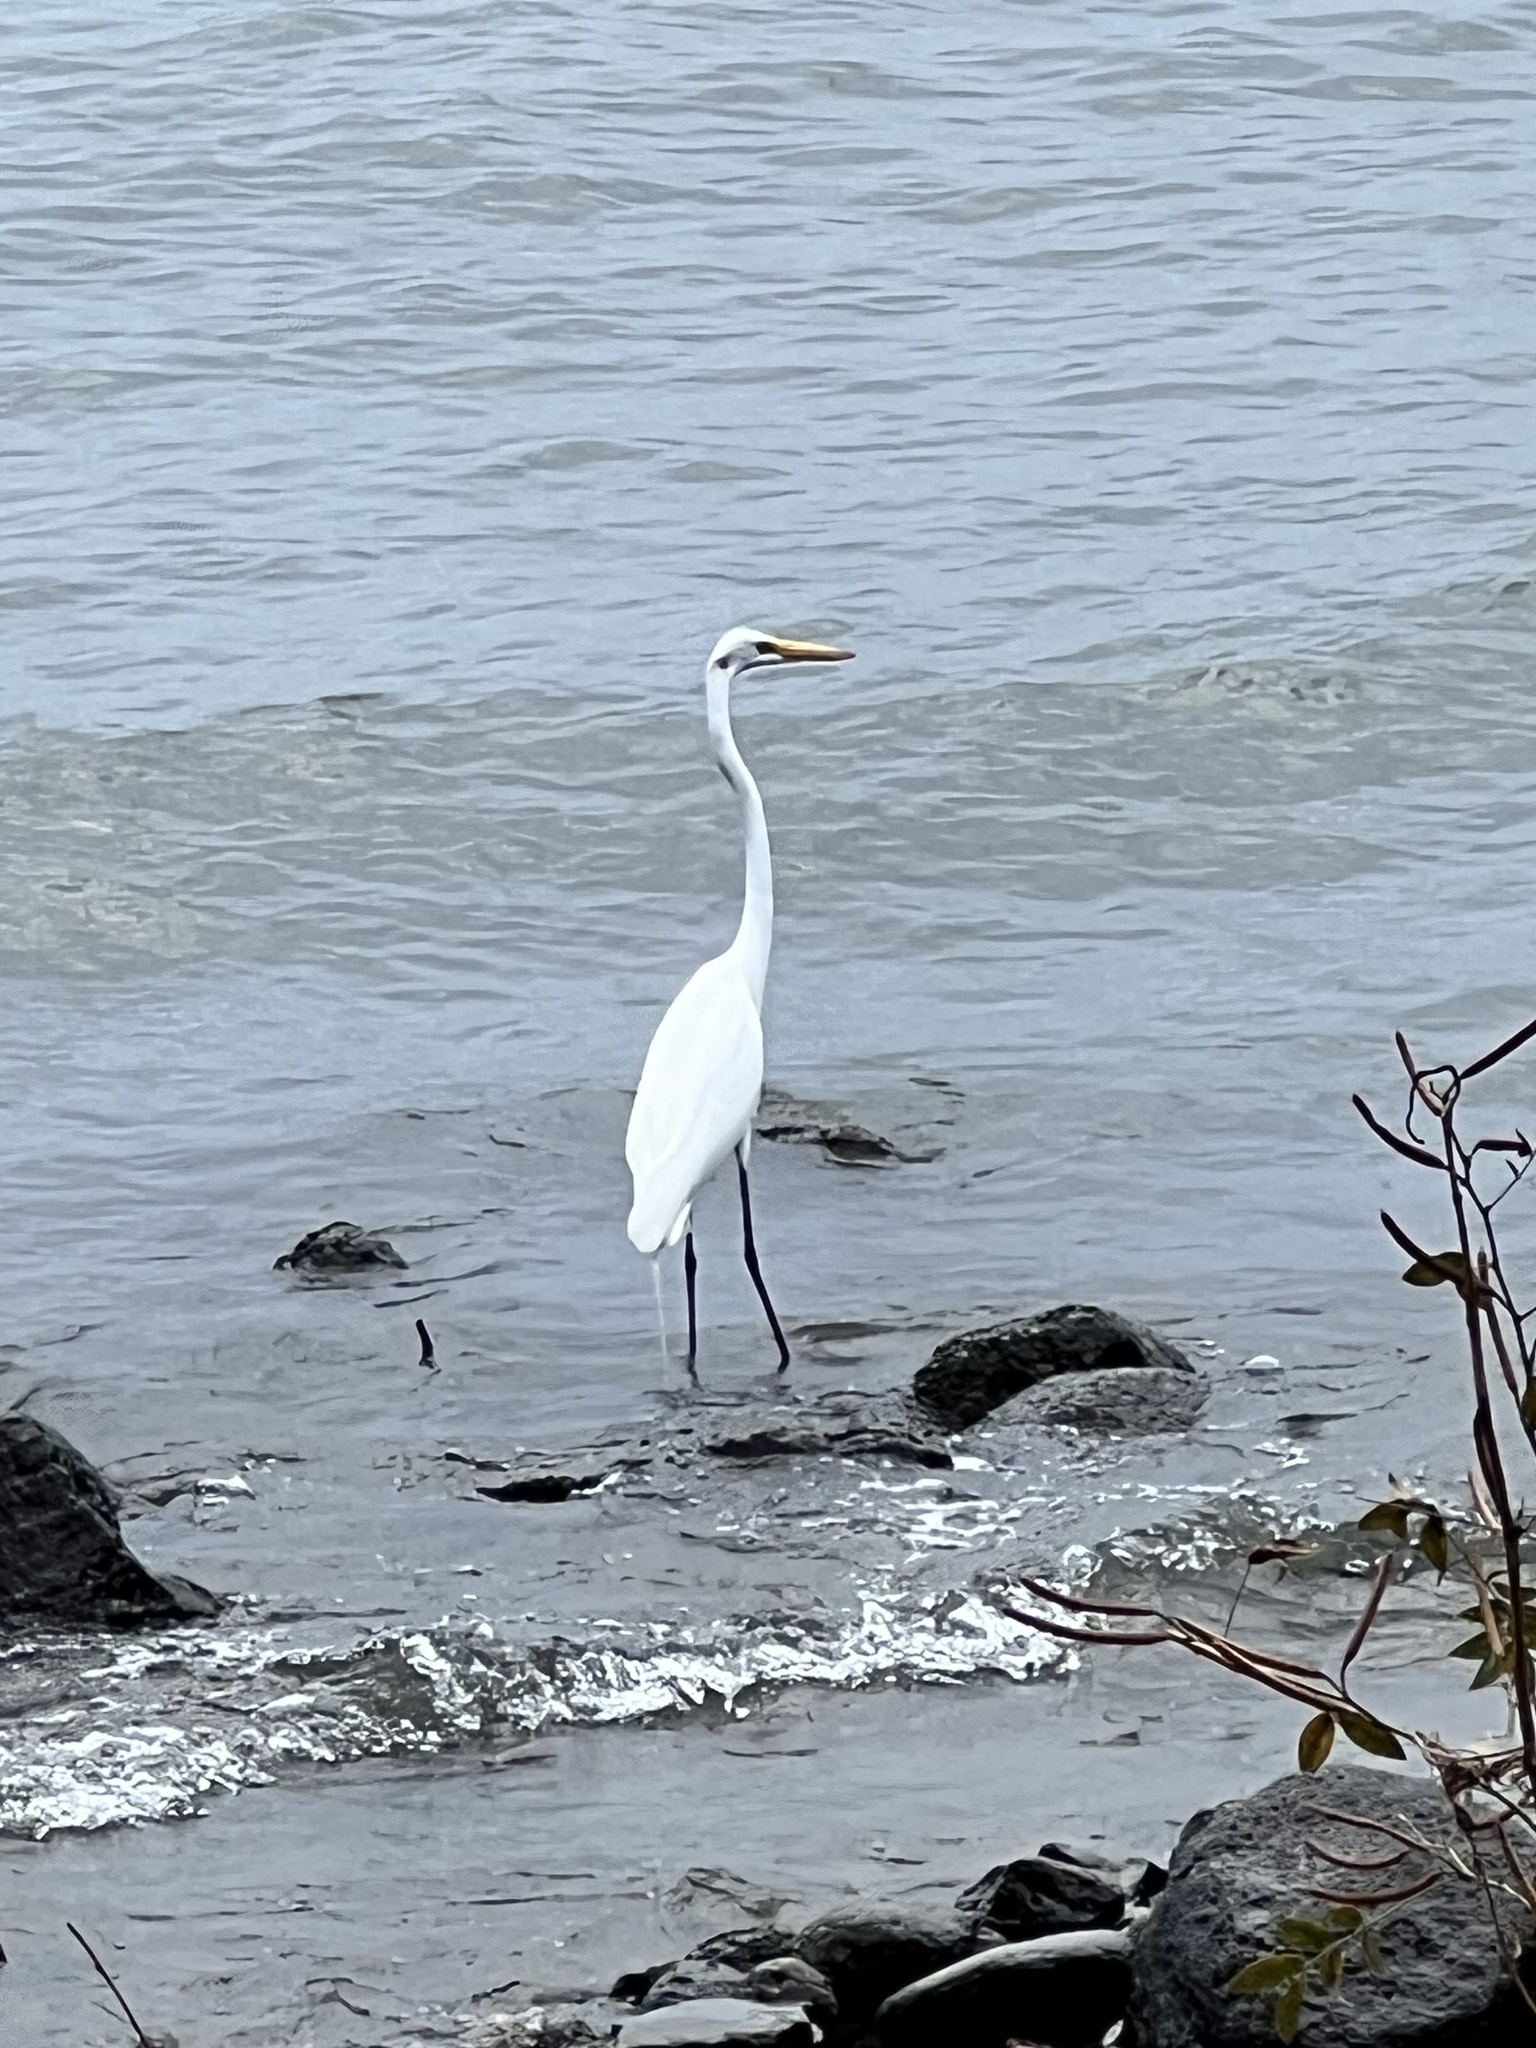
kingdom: Animalia
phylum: Chordata
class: Aves
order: Pelecaniformes
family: Ardeidae
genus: Ardea
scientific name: Ardea alba
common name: Great egret
